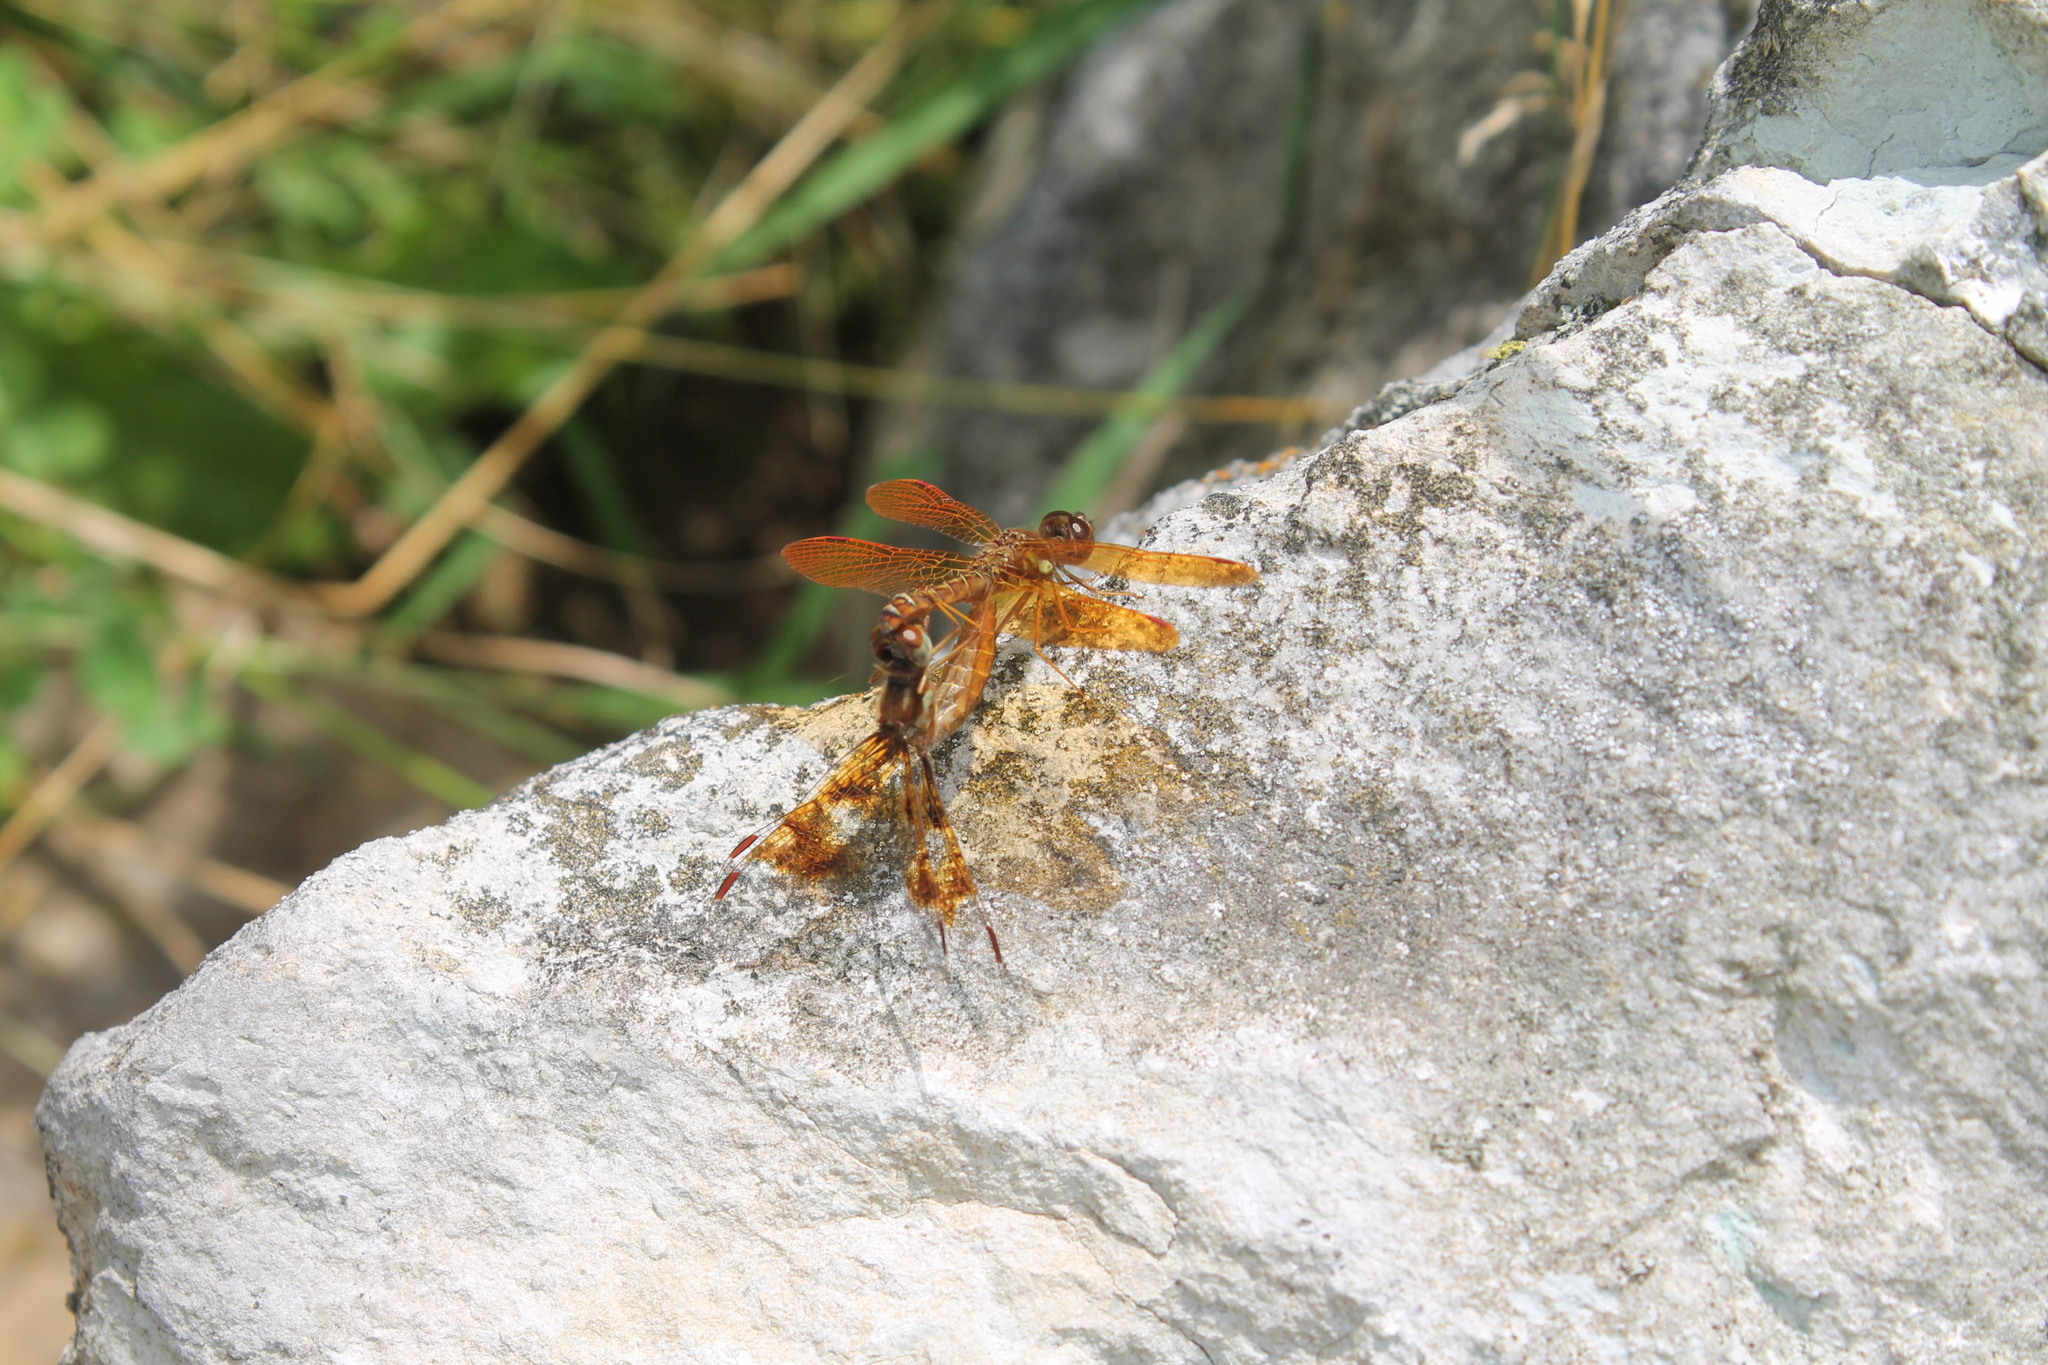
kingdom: Animalia
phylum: Arthropoda
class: Insecta
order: Odonata
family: Libellulidae
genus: Perithemis
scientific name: Perithemis tenera
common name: Eastern amberwing
